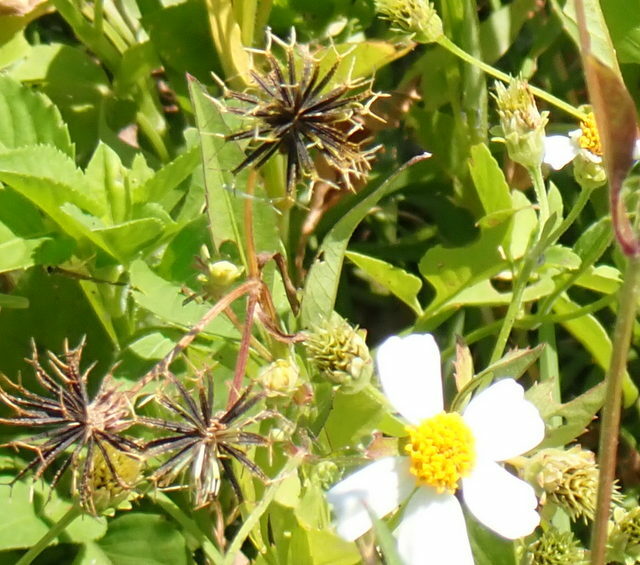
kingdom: Plantae
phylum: Tracheophyta
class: Magnoliopsida
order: Asterales
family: Asteraceae
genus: Bidens
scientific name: Bidens alba
